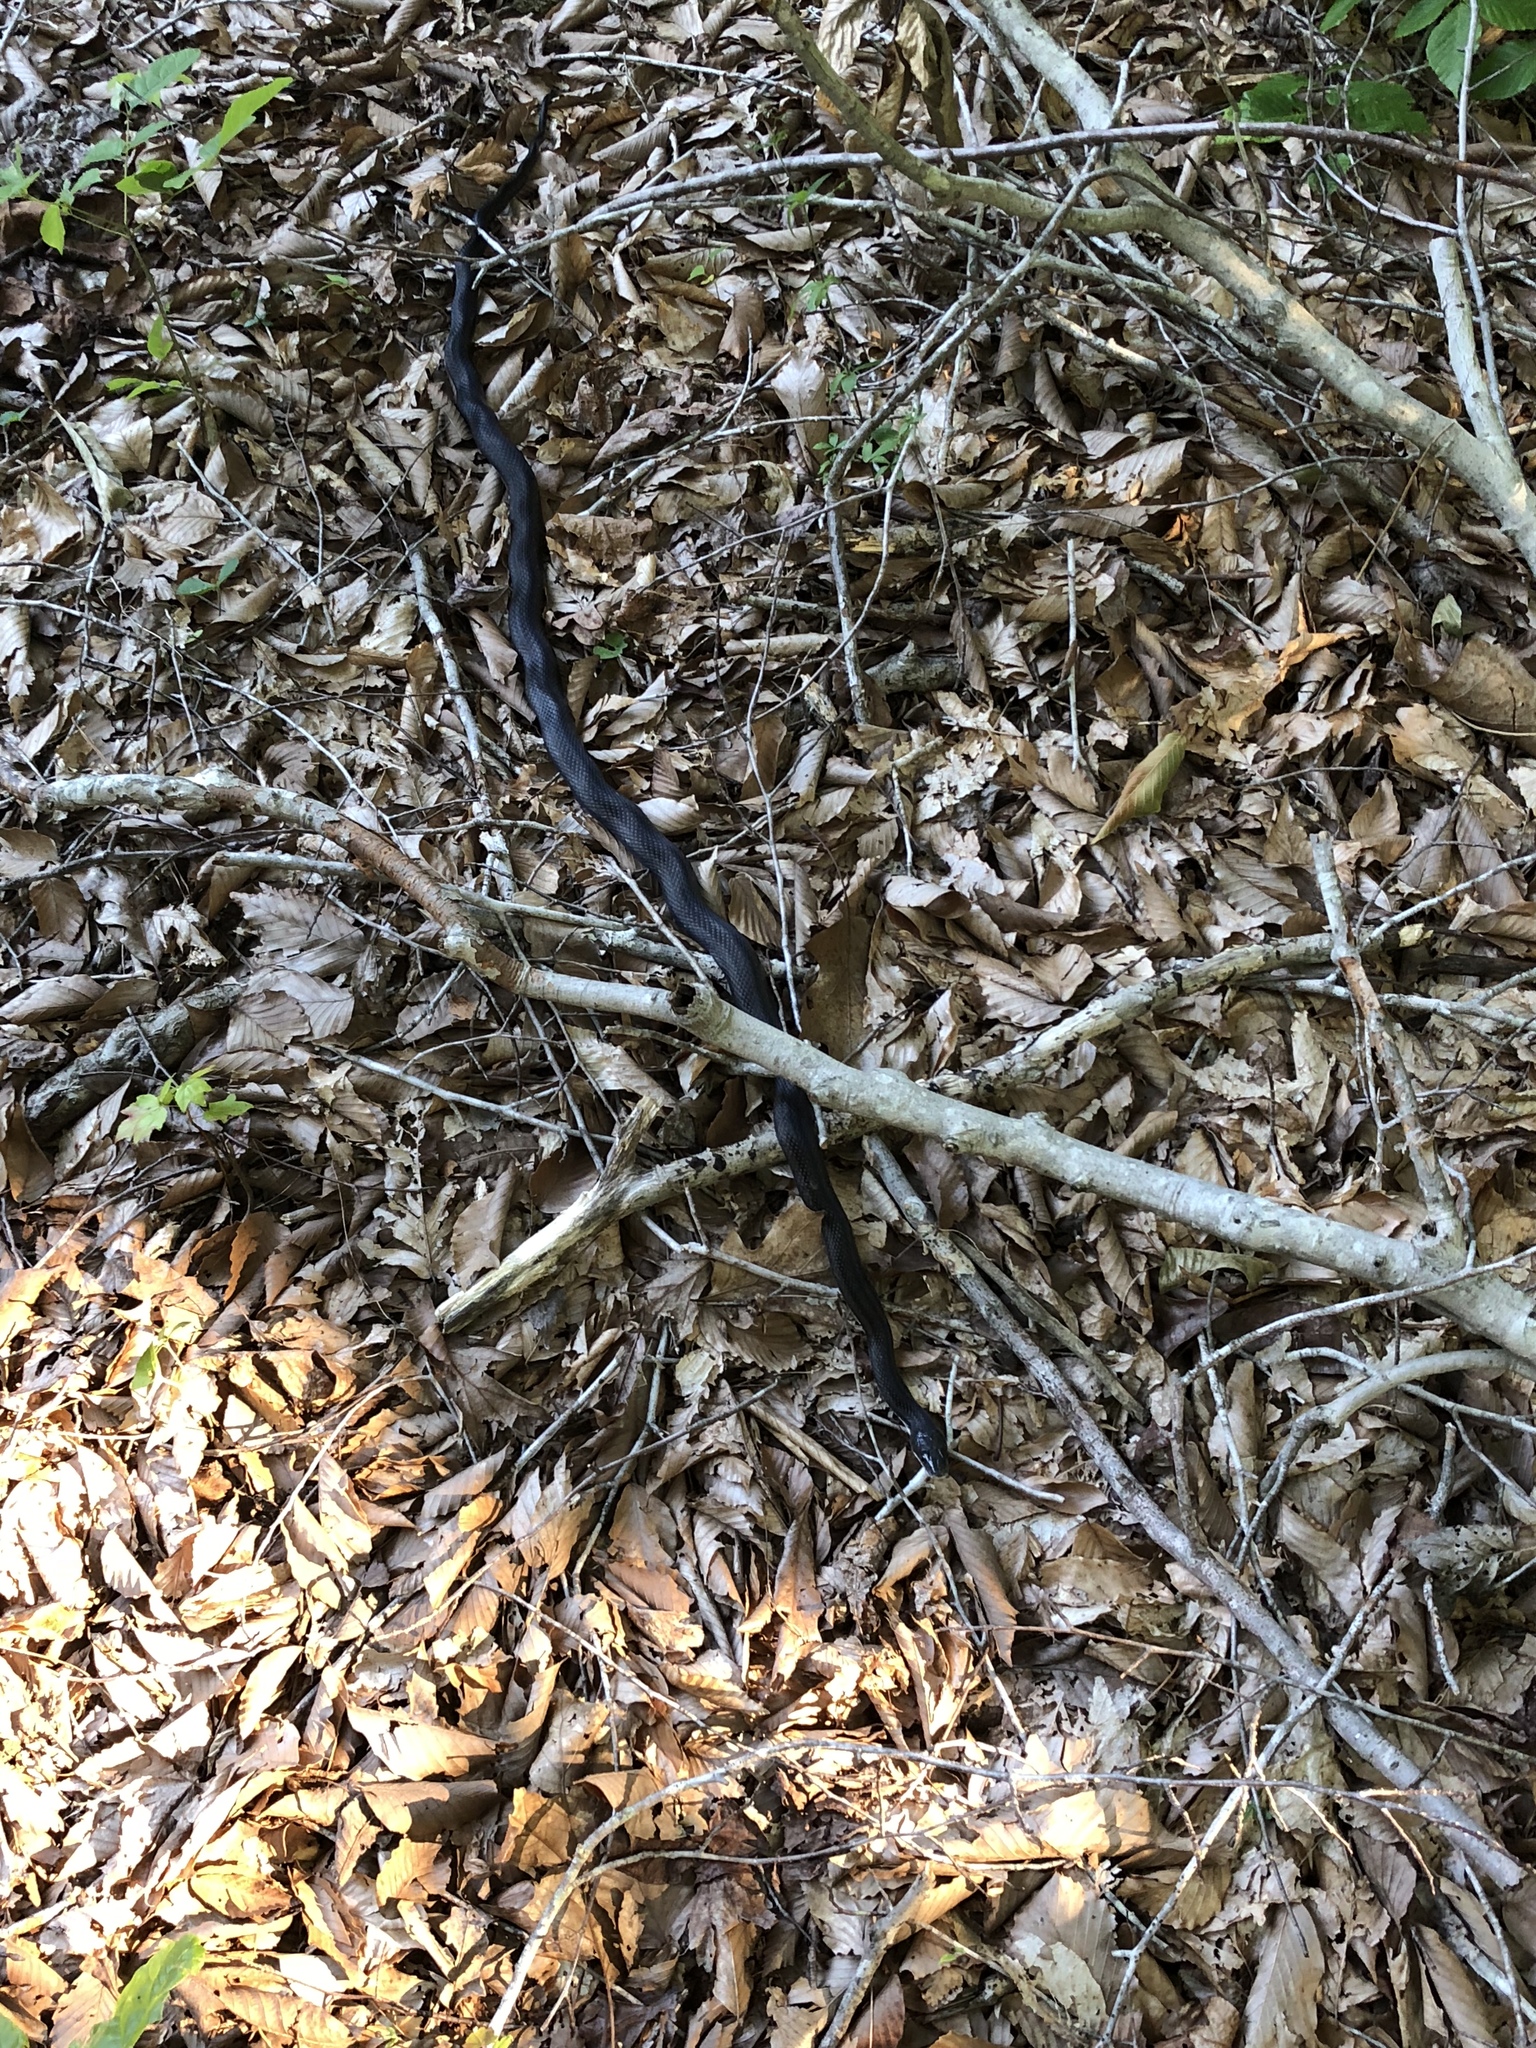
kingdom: Animalia
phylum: Chordata
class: Squamata
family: Colubridae
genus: Pantherophis
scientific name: Pantherophis alleghaniensis
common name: Eastern rat snake
